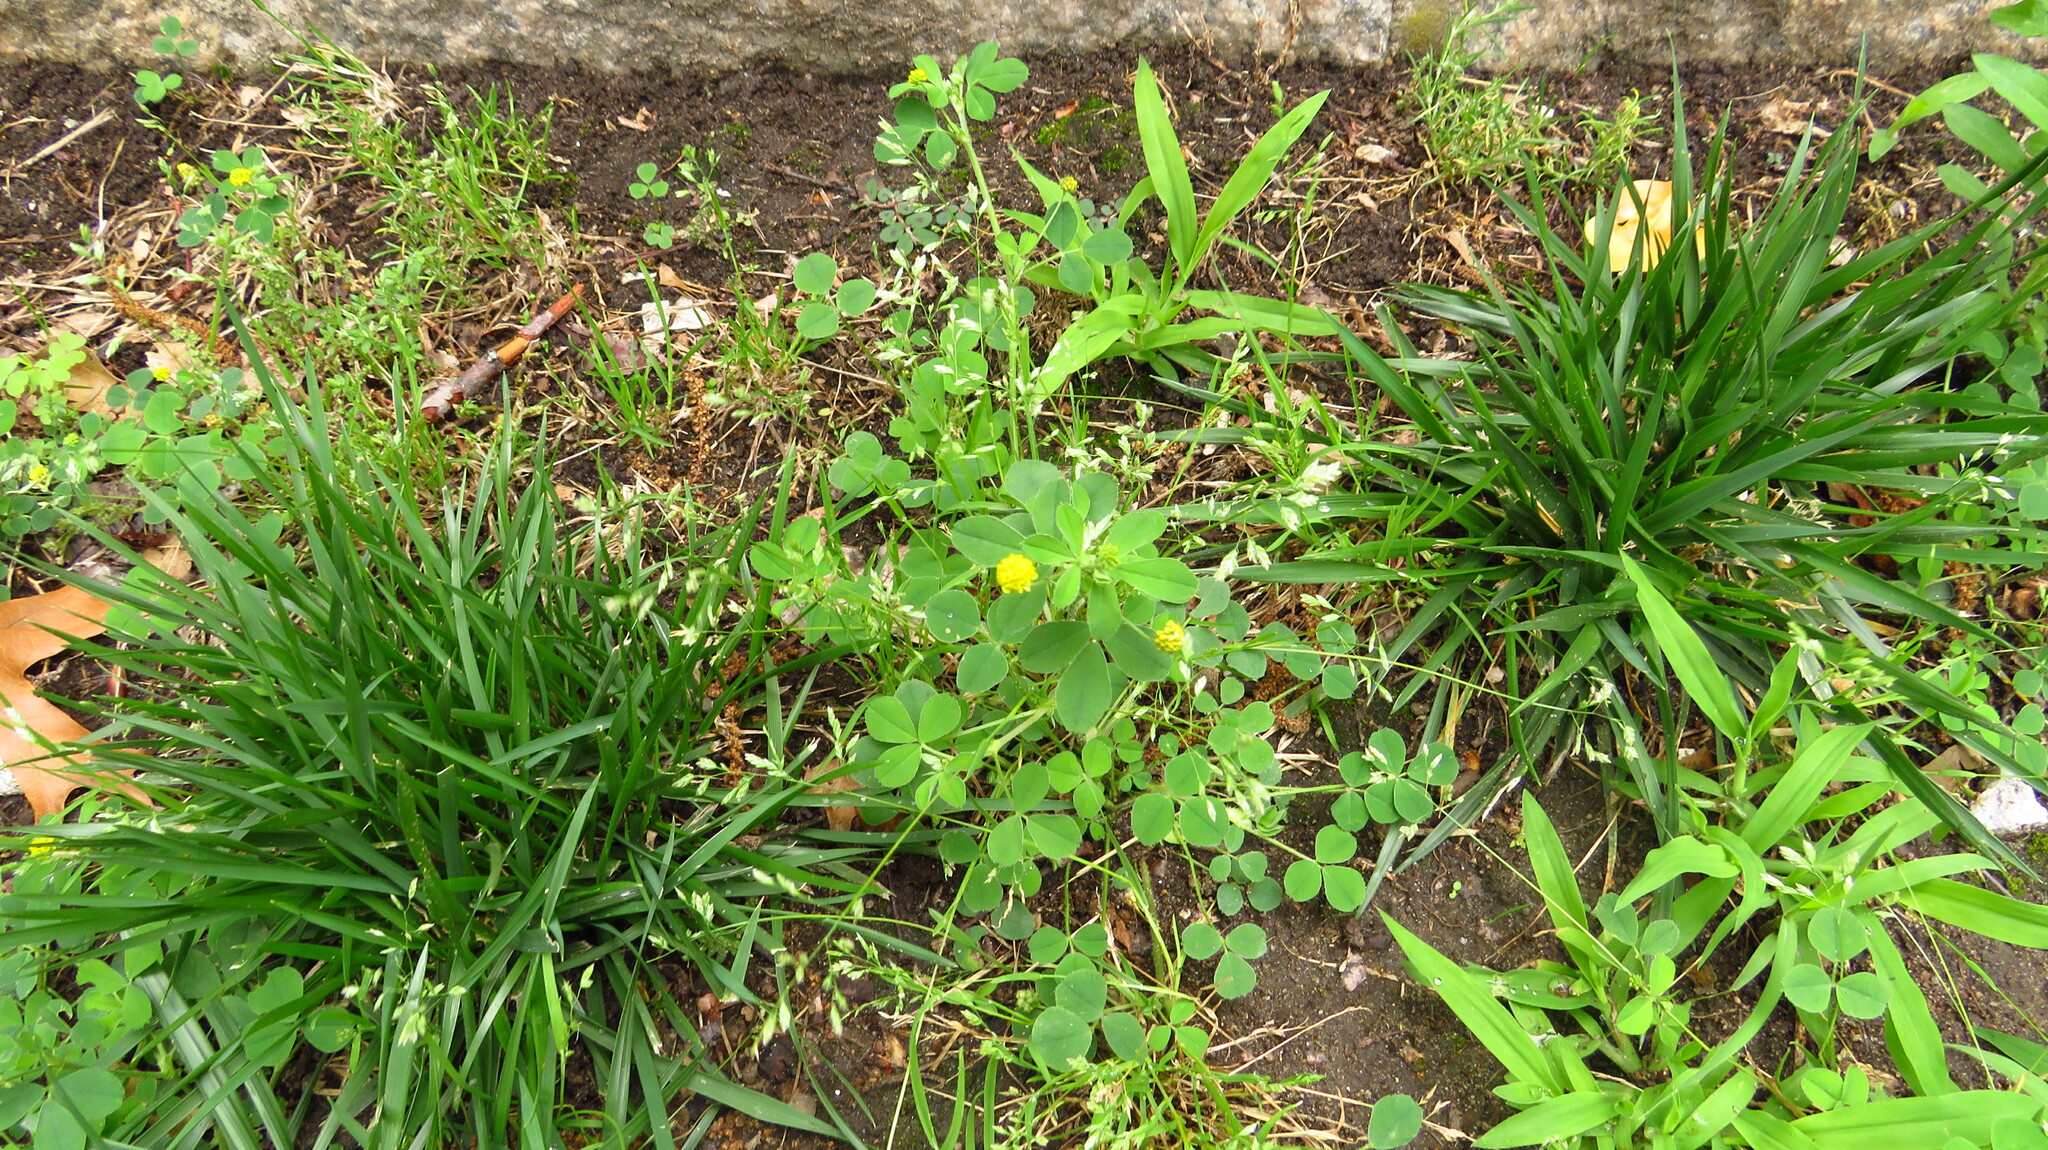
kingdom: Plantae
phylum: Tracheophyta
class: Magnoliopsida
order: Fabales
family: Fabaceae
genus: Medicago
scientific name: Medicago lupulina
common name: Black medick
